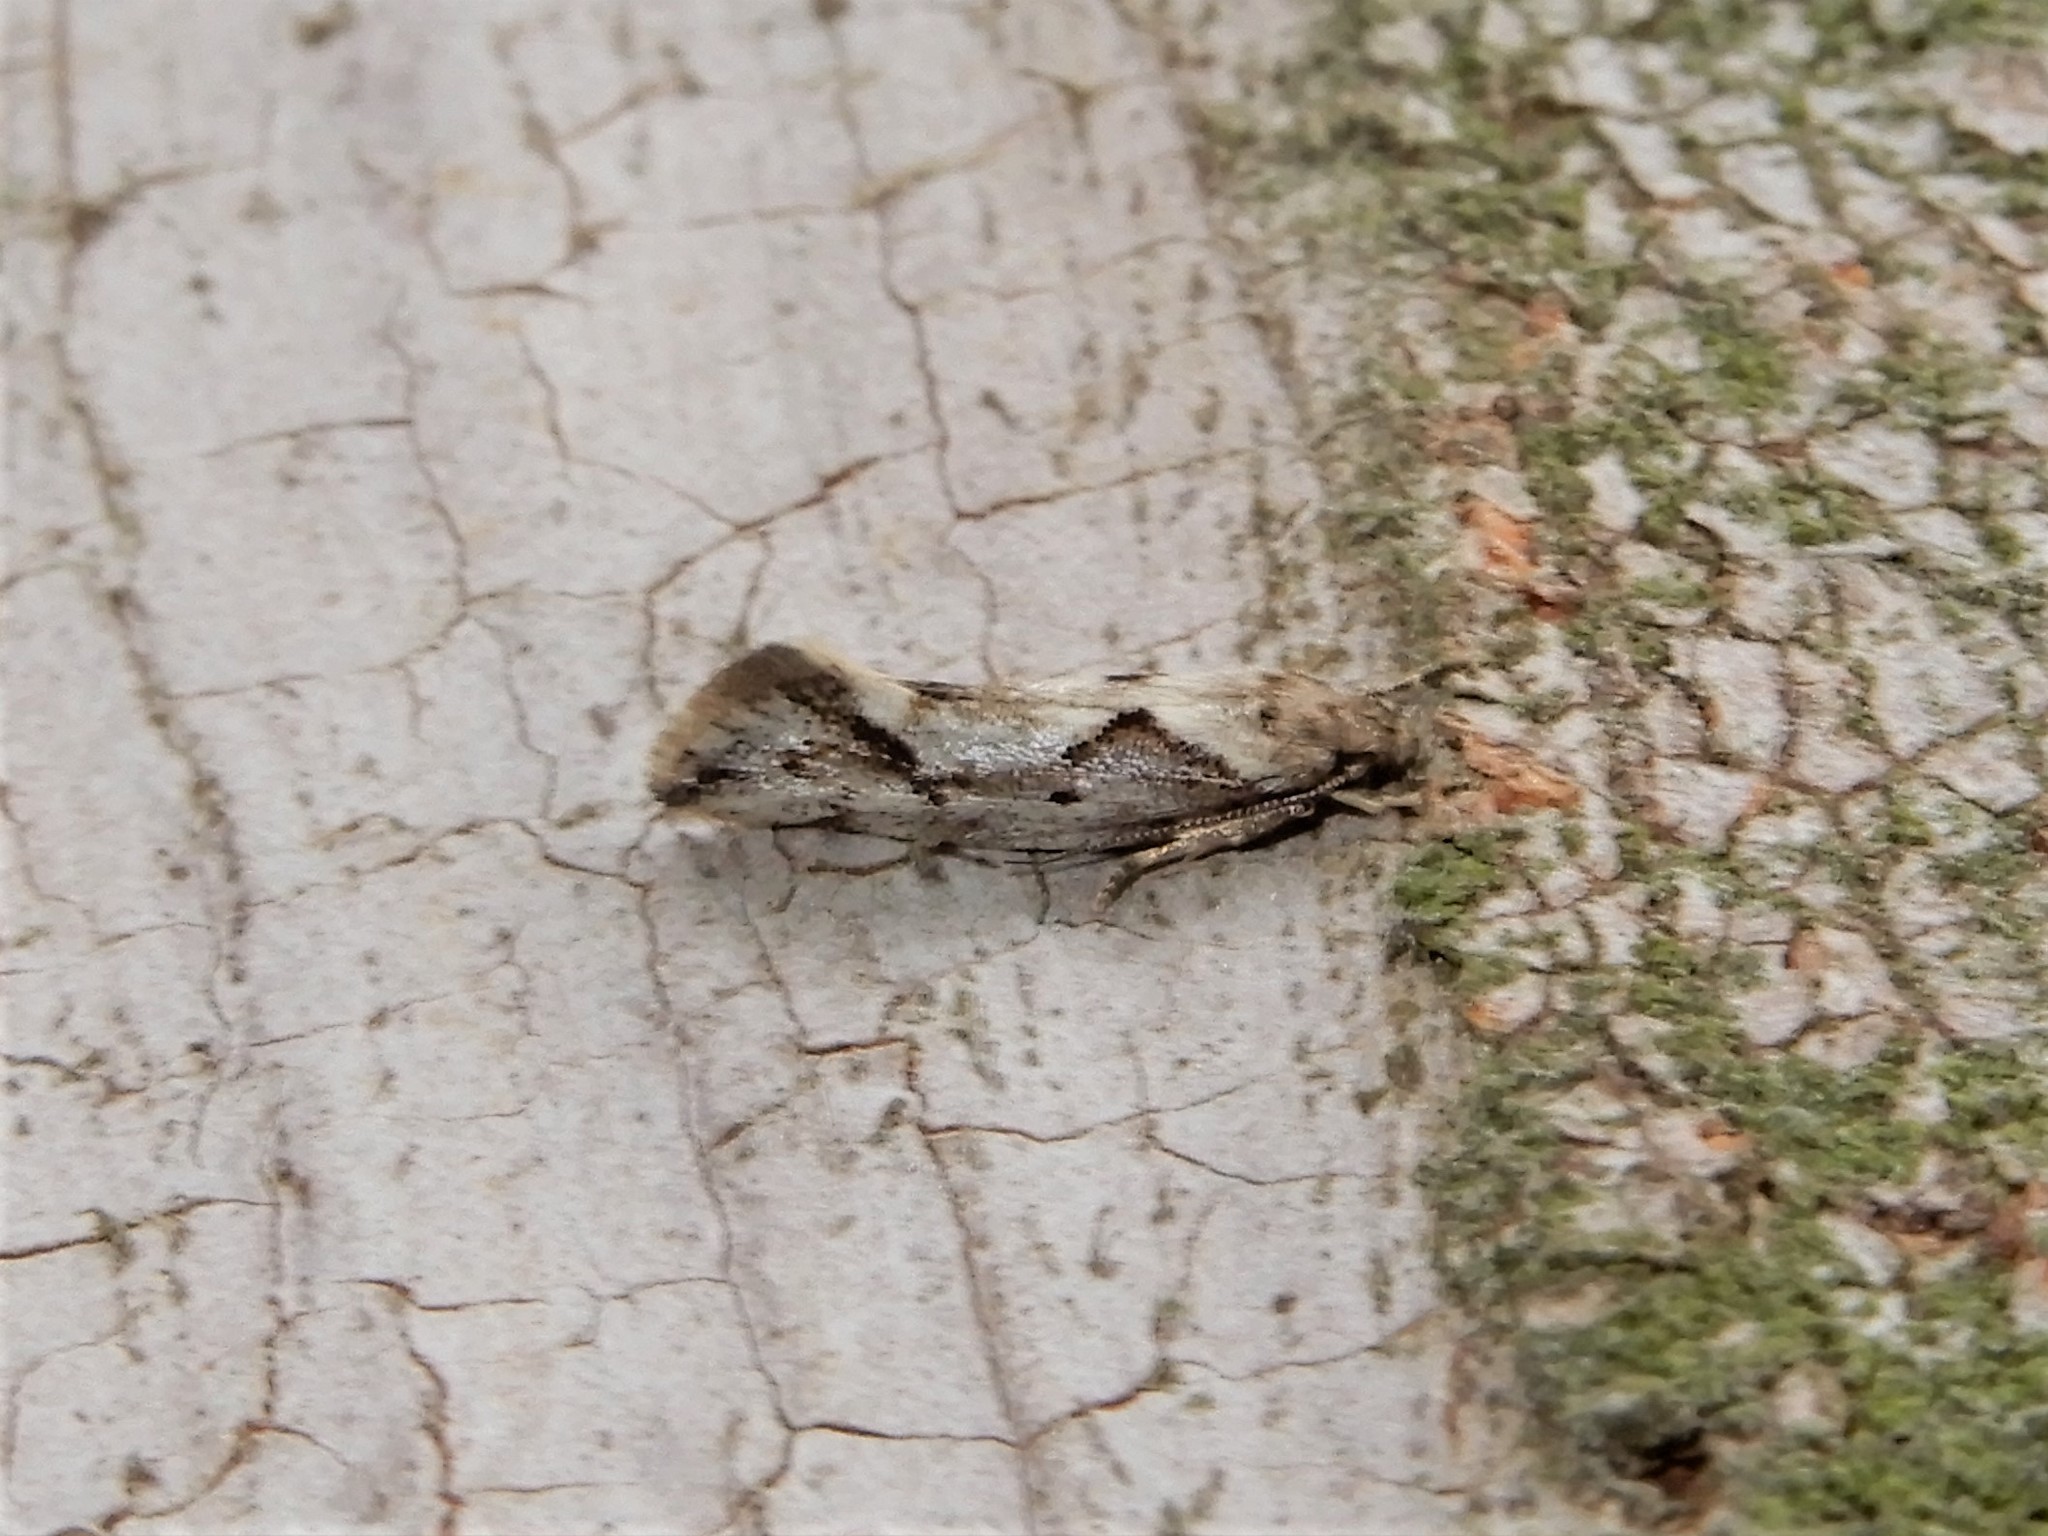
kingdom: Animalia
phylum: Arthropoda
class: Insecta
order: Lepidoptera
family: Oecophoridae
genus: Tingena
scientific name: Tingena hemimochla
